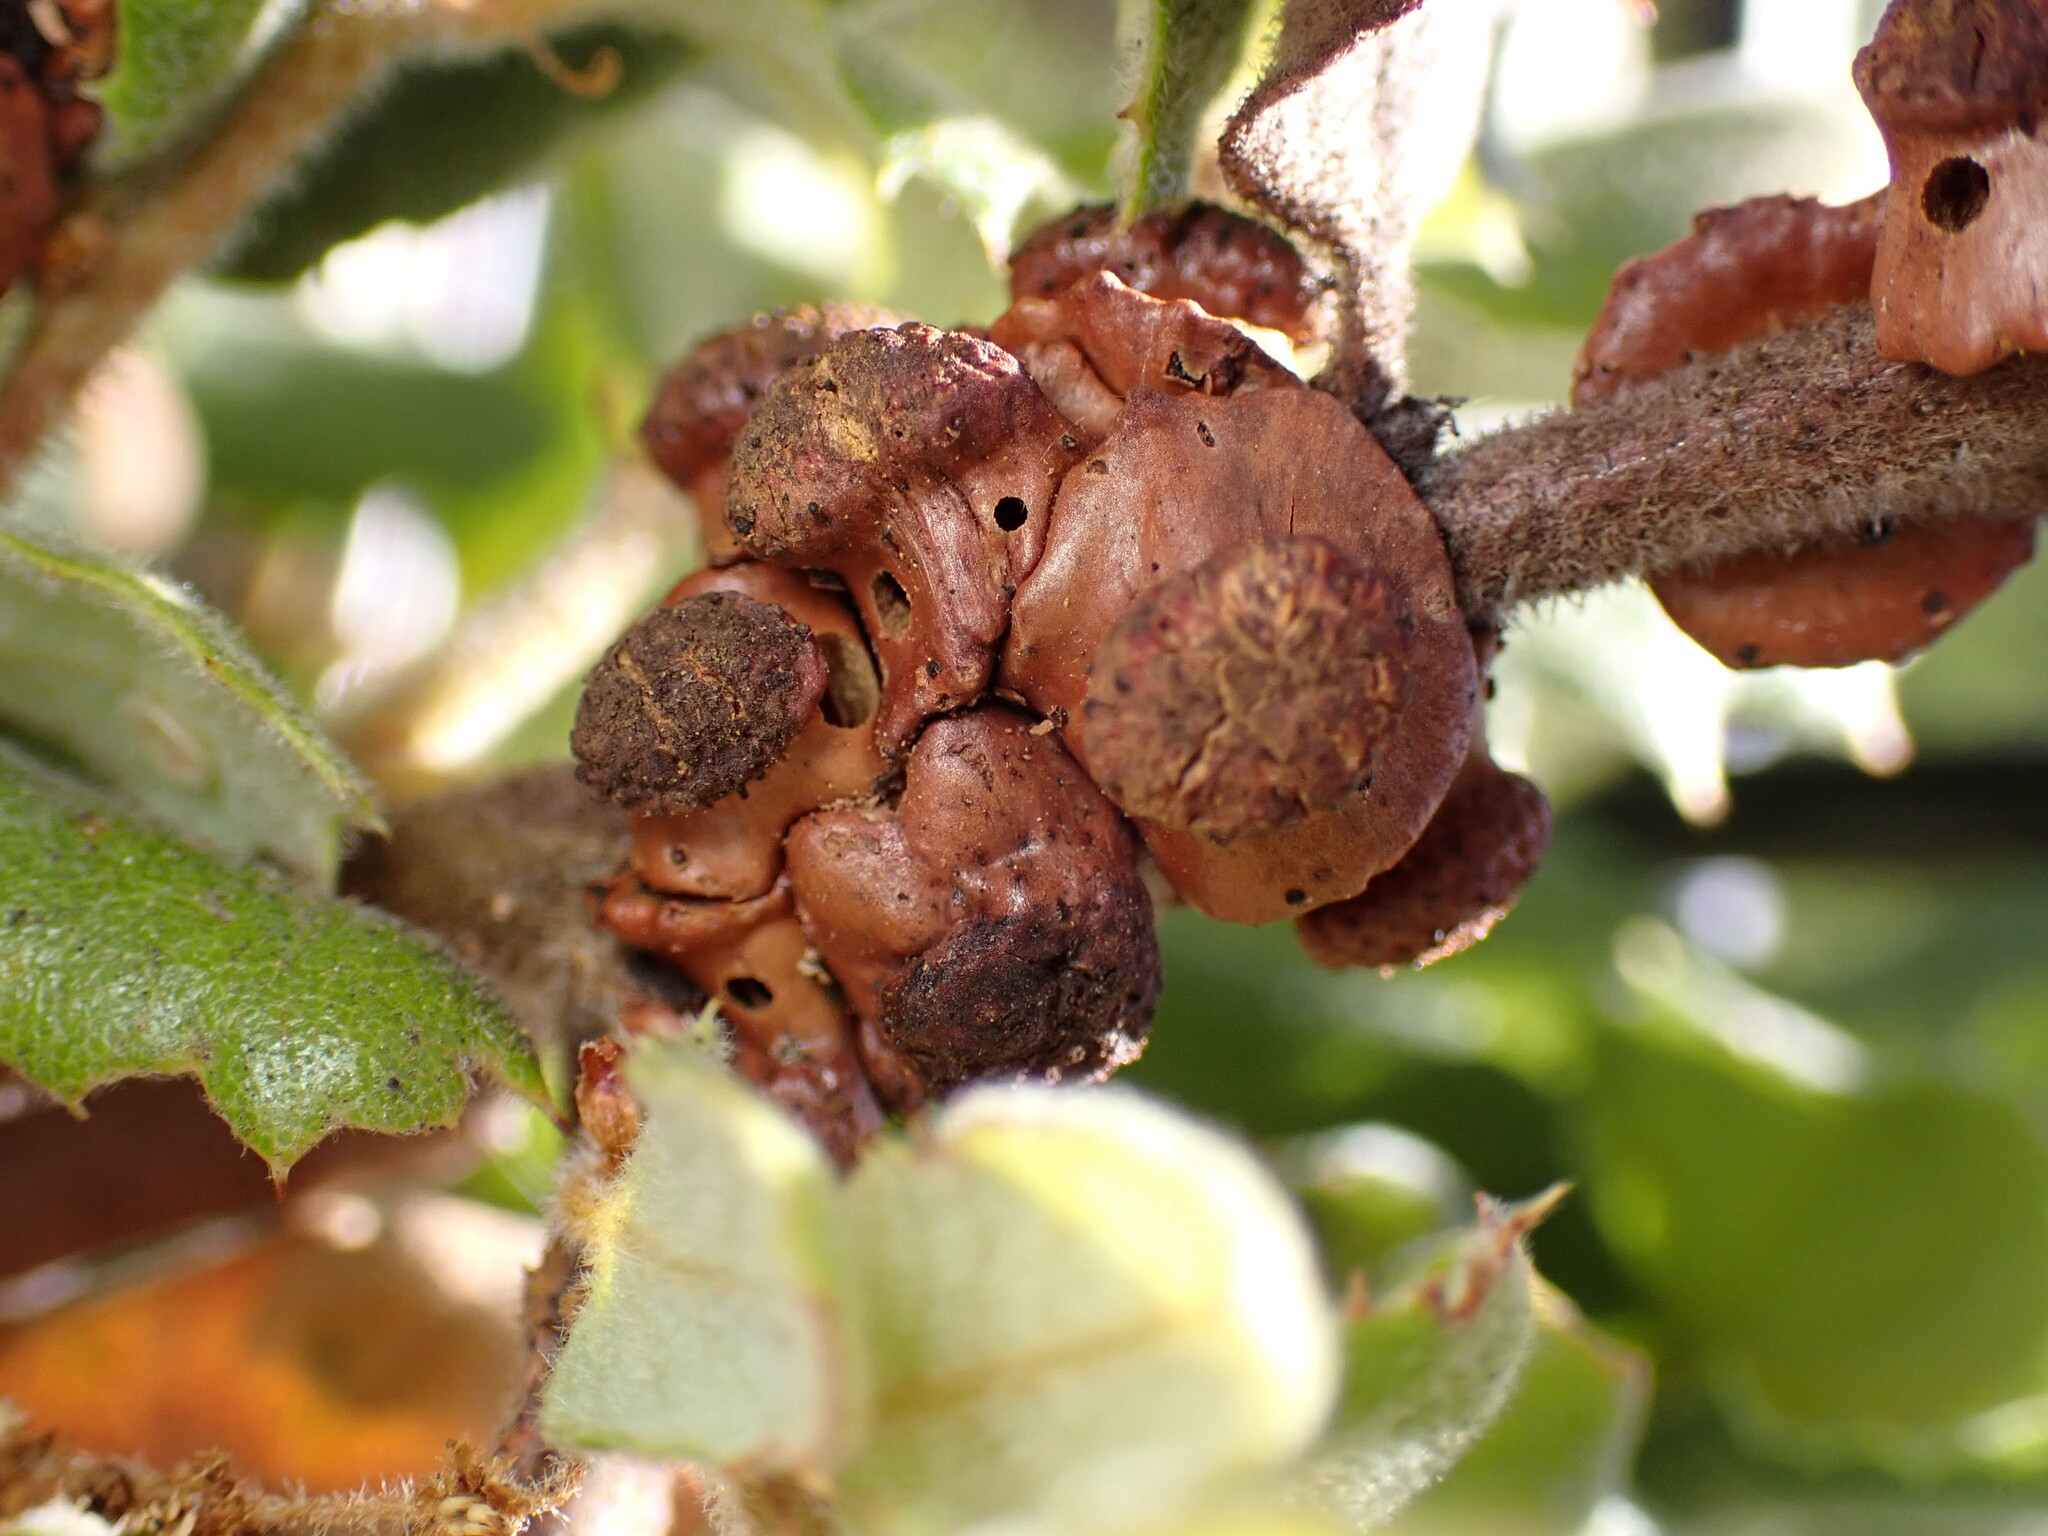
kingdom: Animalia
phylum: Arthropoda
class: Insecta
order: Hymenoptera
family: Cynipidae
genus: Disholcaspis
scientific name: Disholcaspis prehensa
